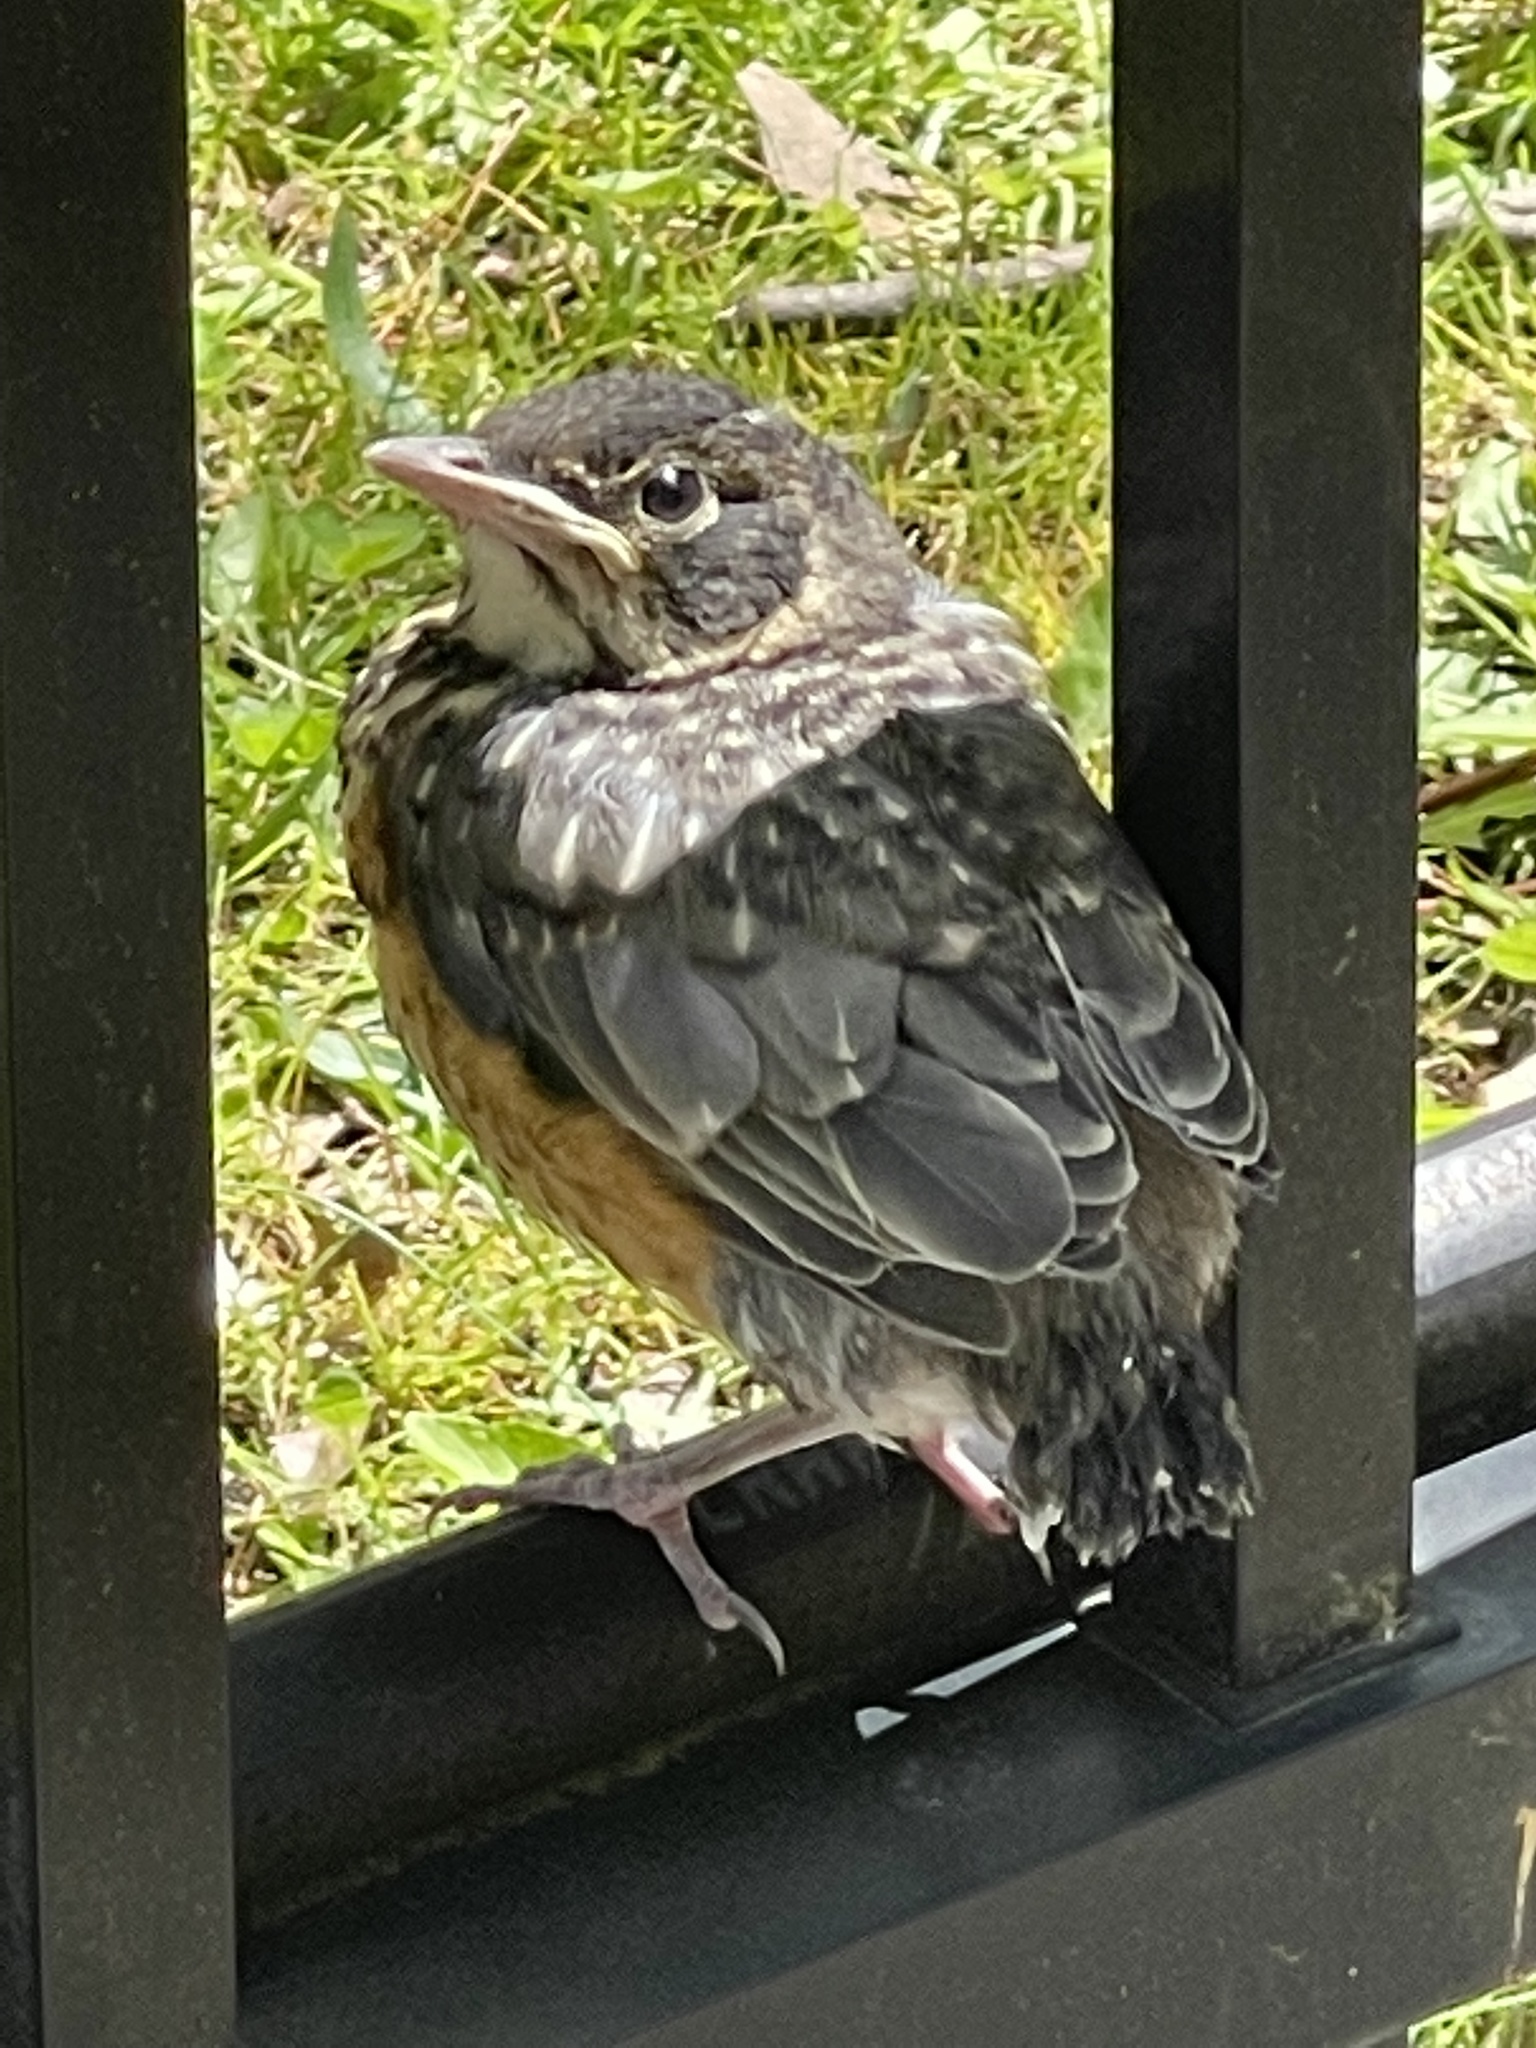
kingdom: Animalia
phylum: Chordata
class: Aves
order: Passeriformes
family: Turdidae
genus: Turdus
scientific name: Turdus migratorius
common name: American robin
